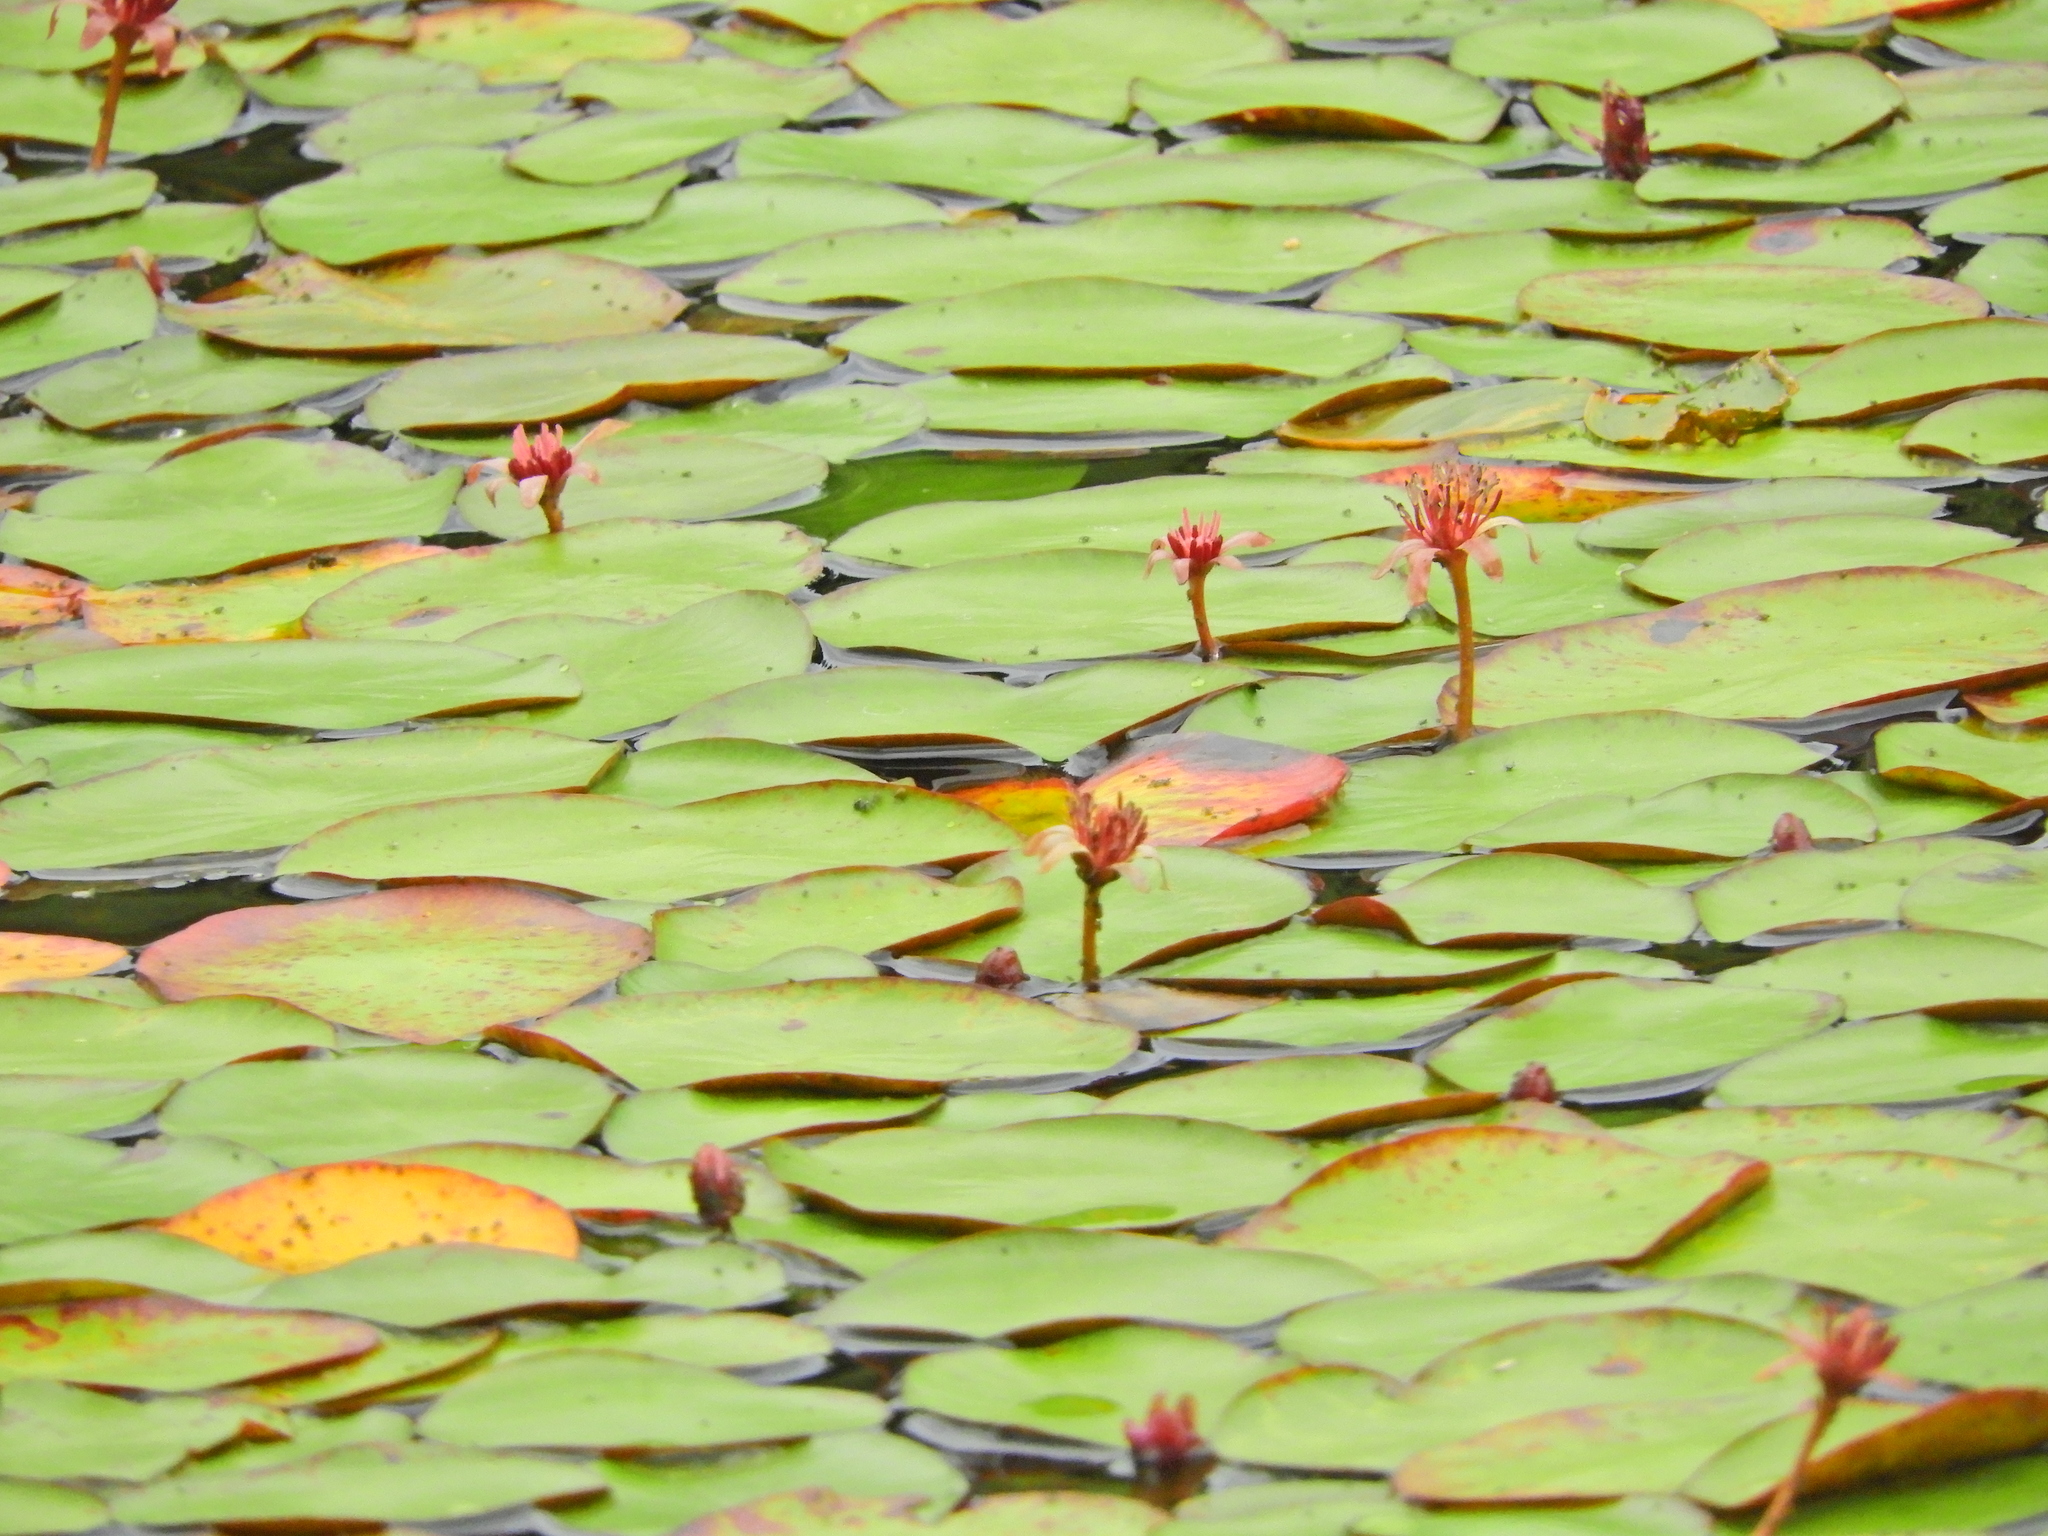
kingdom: Plantae
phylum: Tracheophyta
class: Magnoliopsida
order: Nymphaeales
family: Cabombaceae
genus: Brasenia
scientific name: Brasenia schreberi
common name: Water-shield
